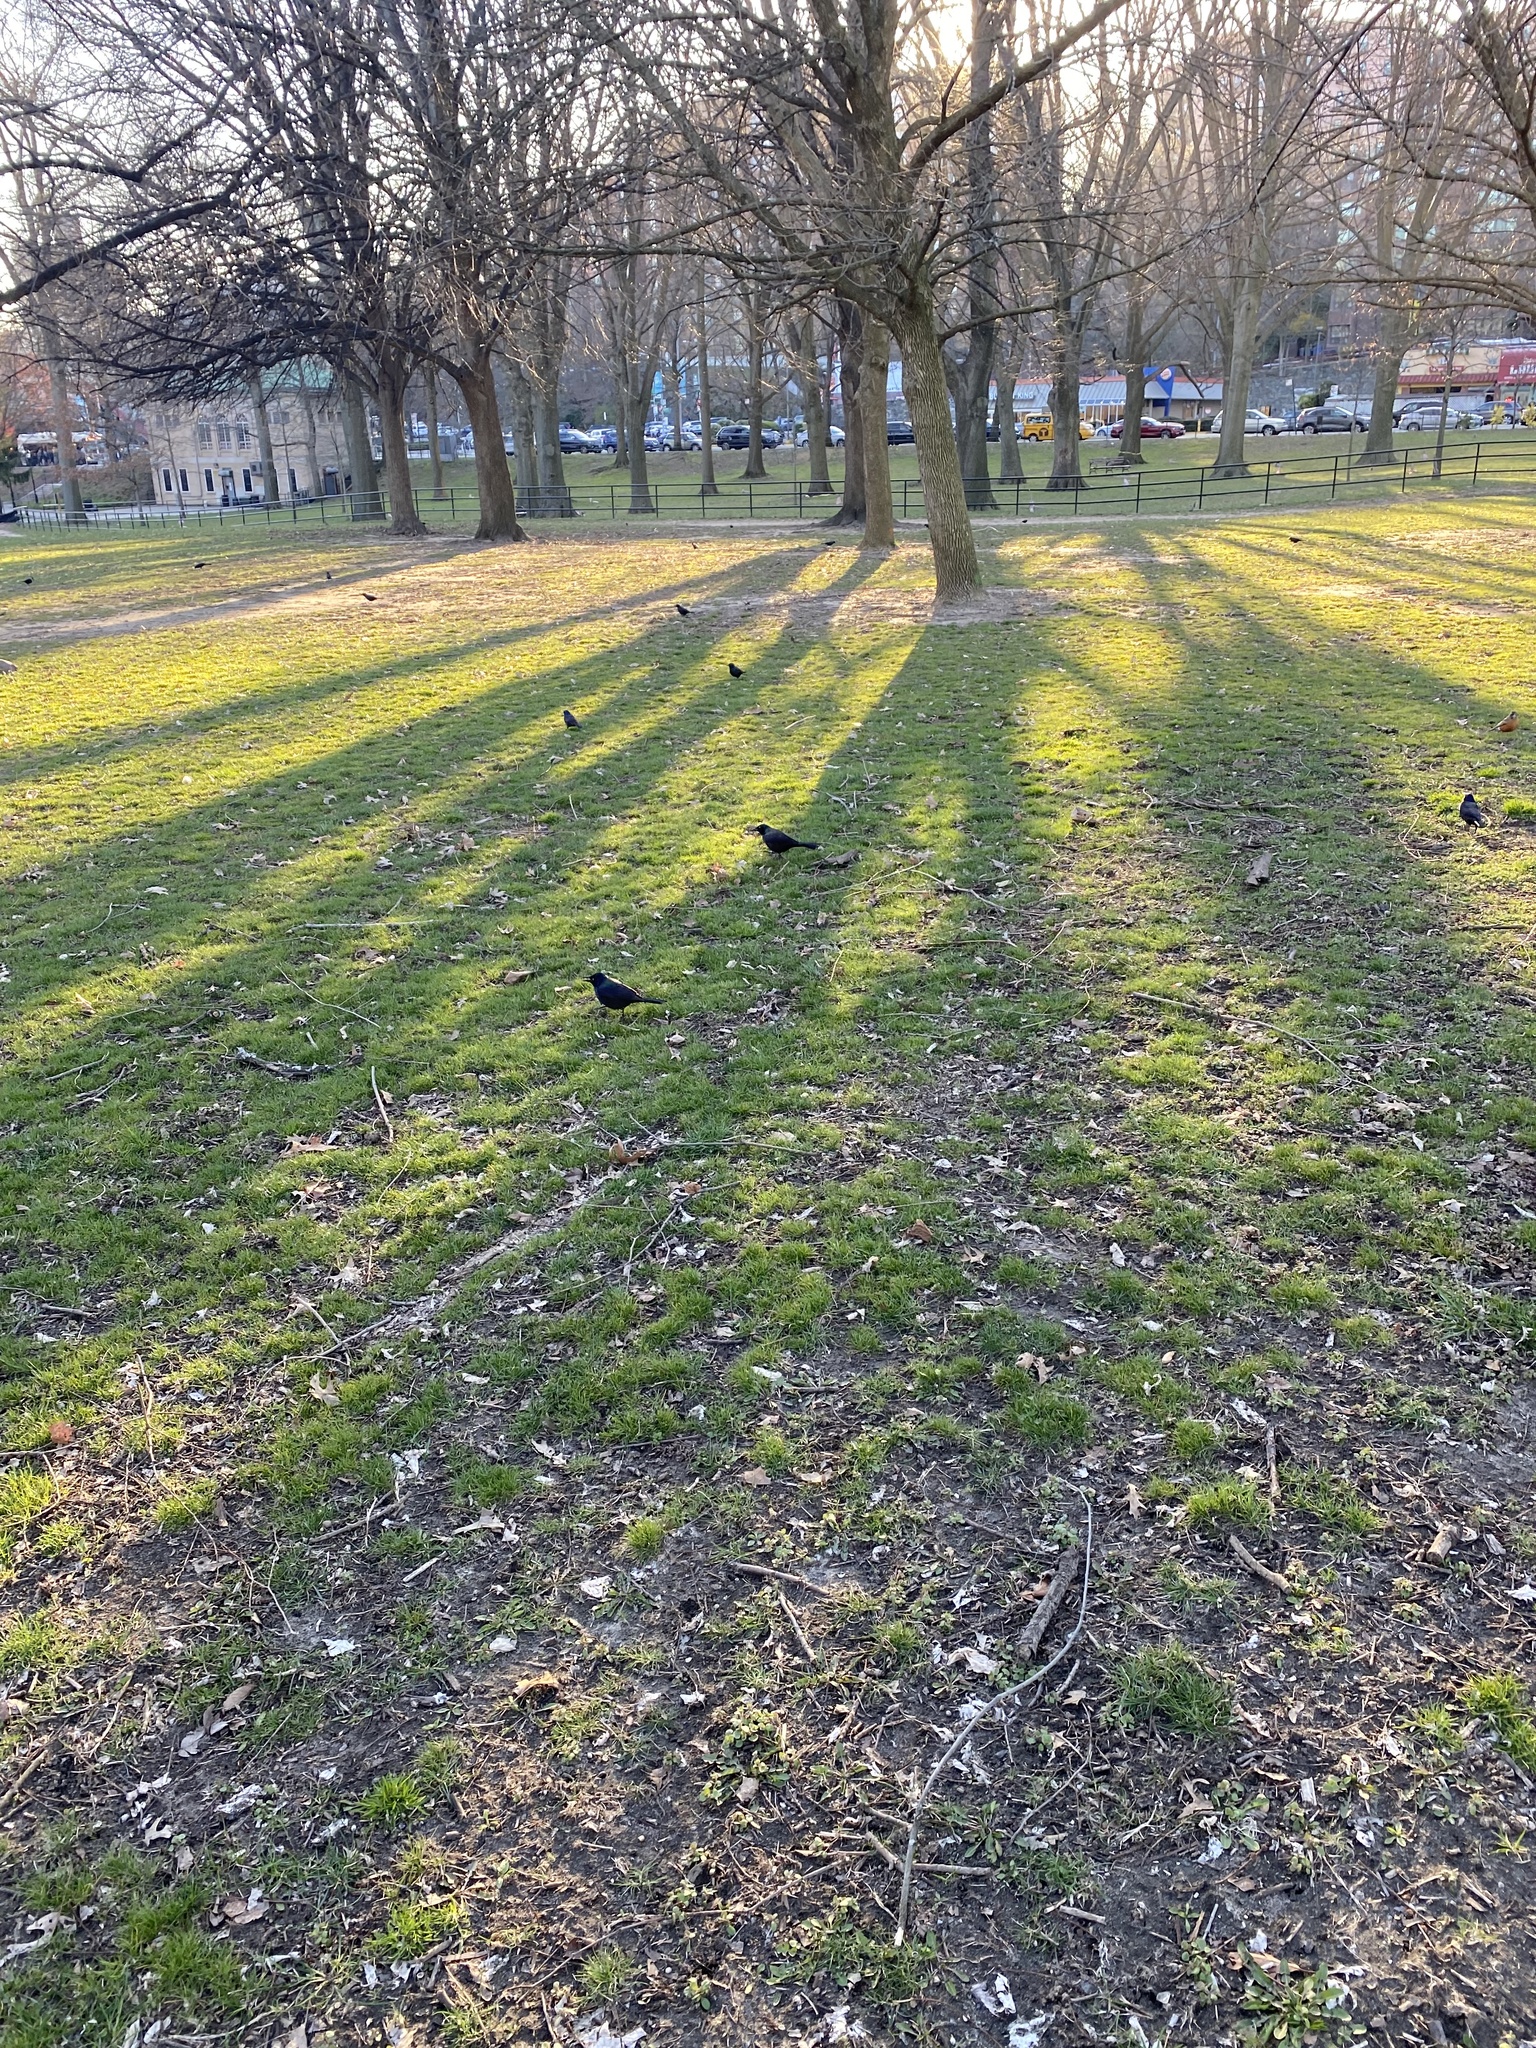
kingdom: Animalia
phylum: Chordata
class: Aves
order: Passeriformes
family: Icteridae
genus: Quiscalus
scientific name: Quiscalus quiscula
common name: Common grackle
